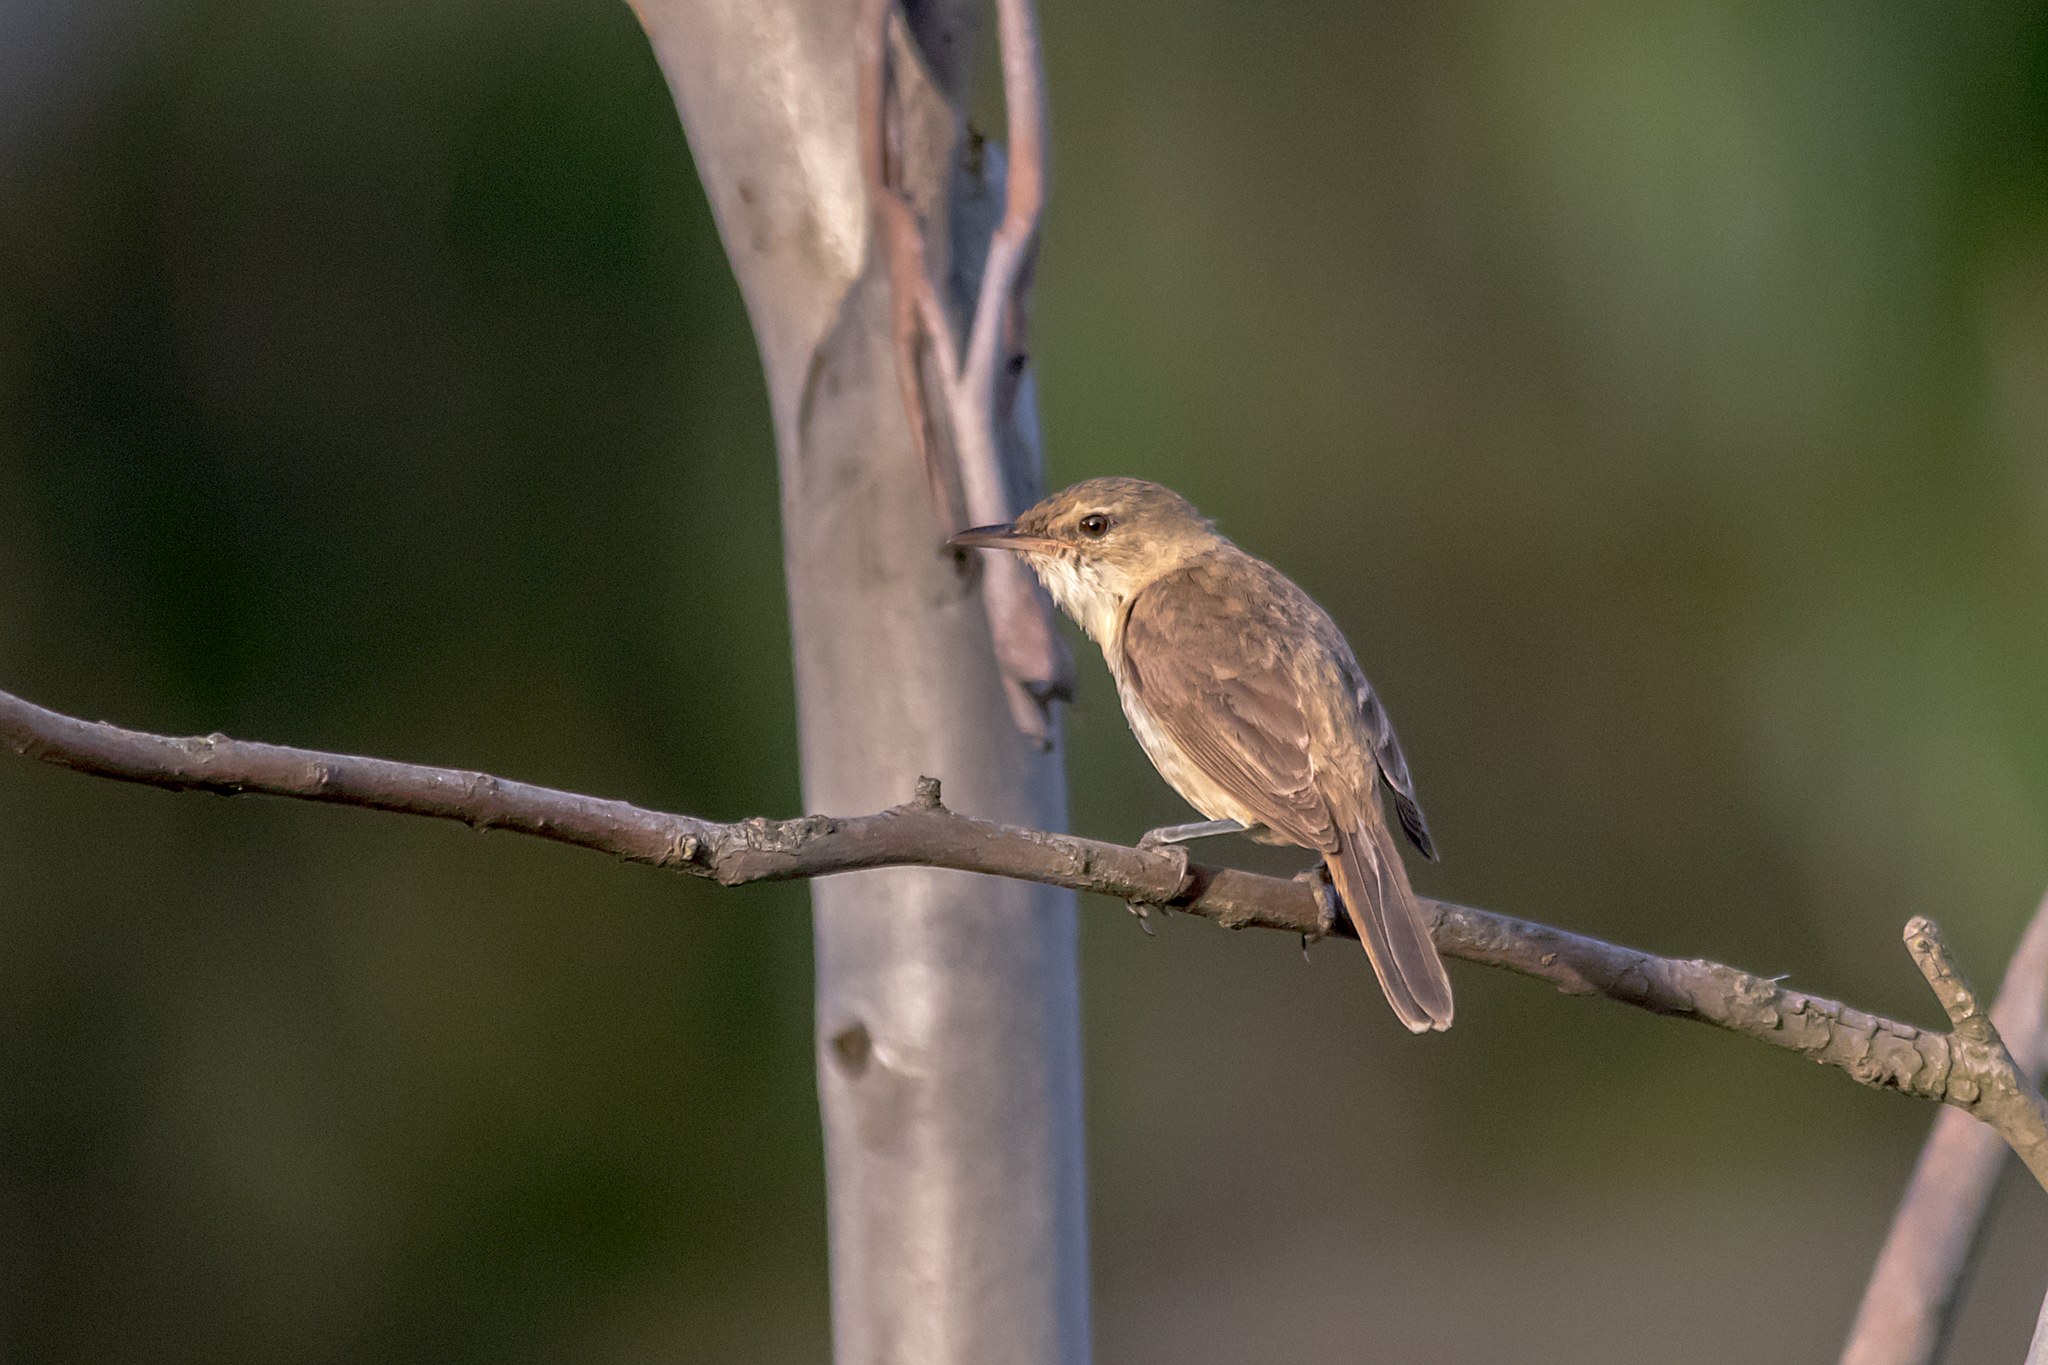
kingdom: Animalia
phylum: Chordata
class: Aves
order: Passeriformes
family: Acrocephalidae
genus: Acrocephalus
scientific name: Acrocephalus australis
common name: Australian reed warbler
